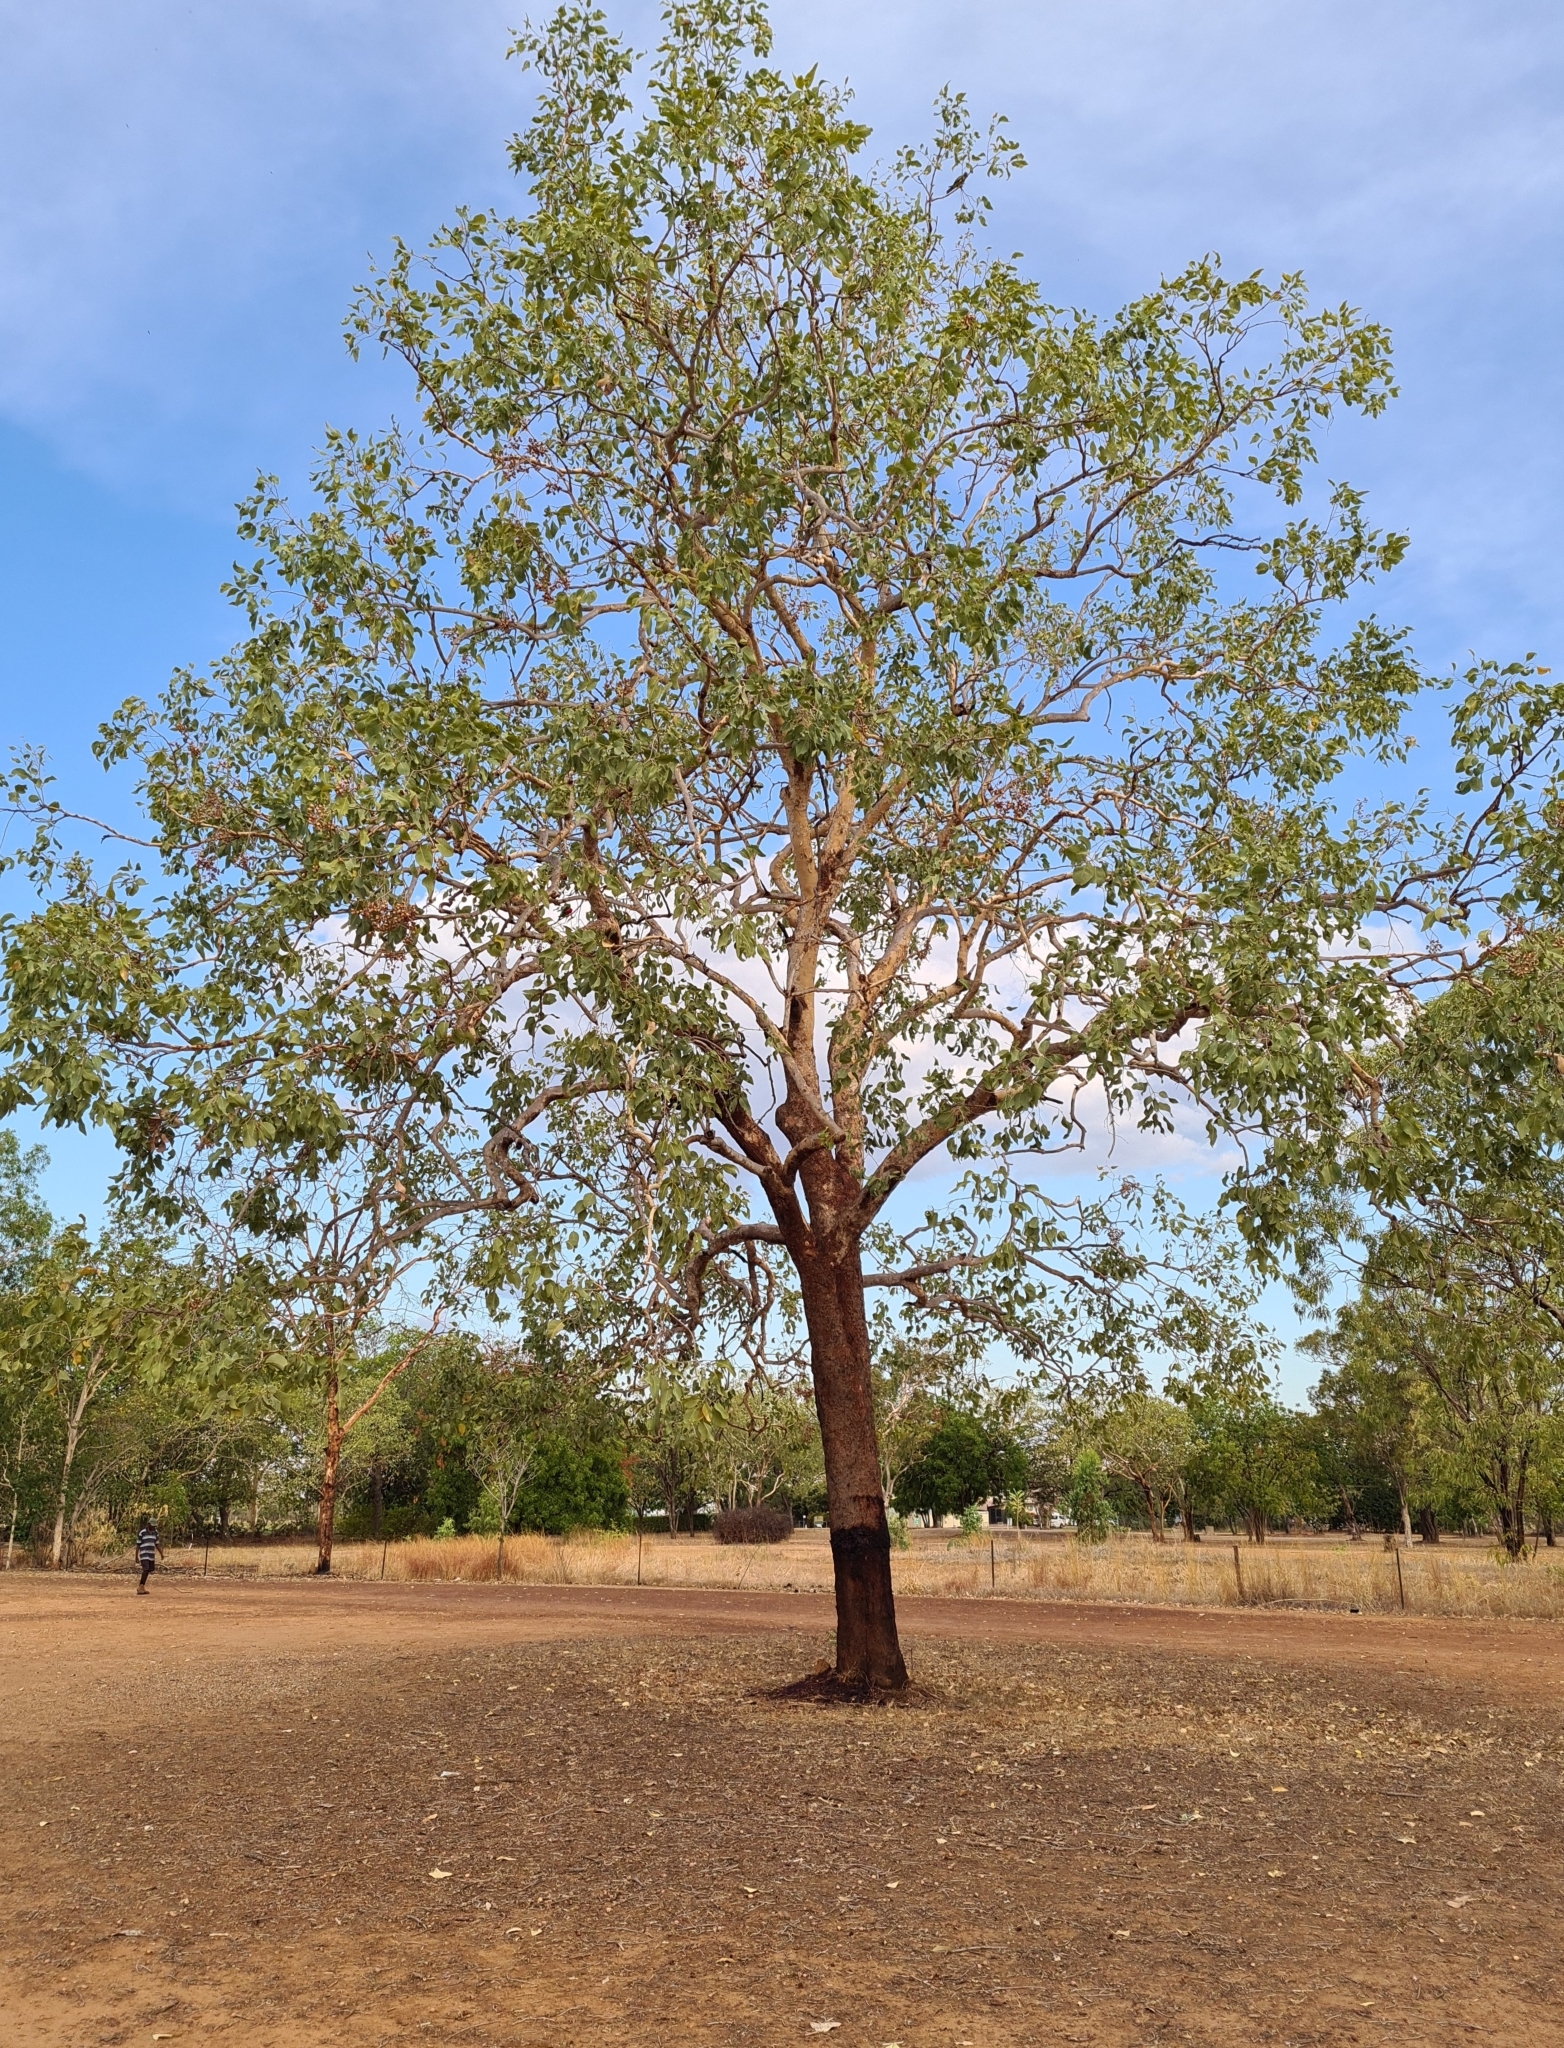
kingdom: Plantae
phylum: Tracheophyta
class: Magnoliopsida
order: Myrtales
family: Myrtaceae
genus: Corymbia
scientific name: Corymbia foelscheana
